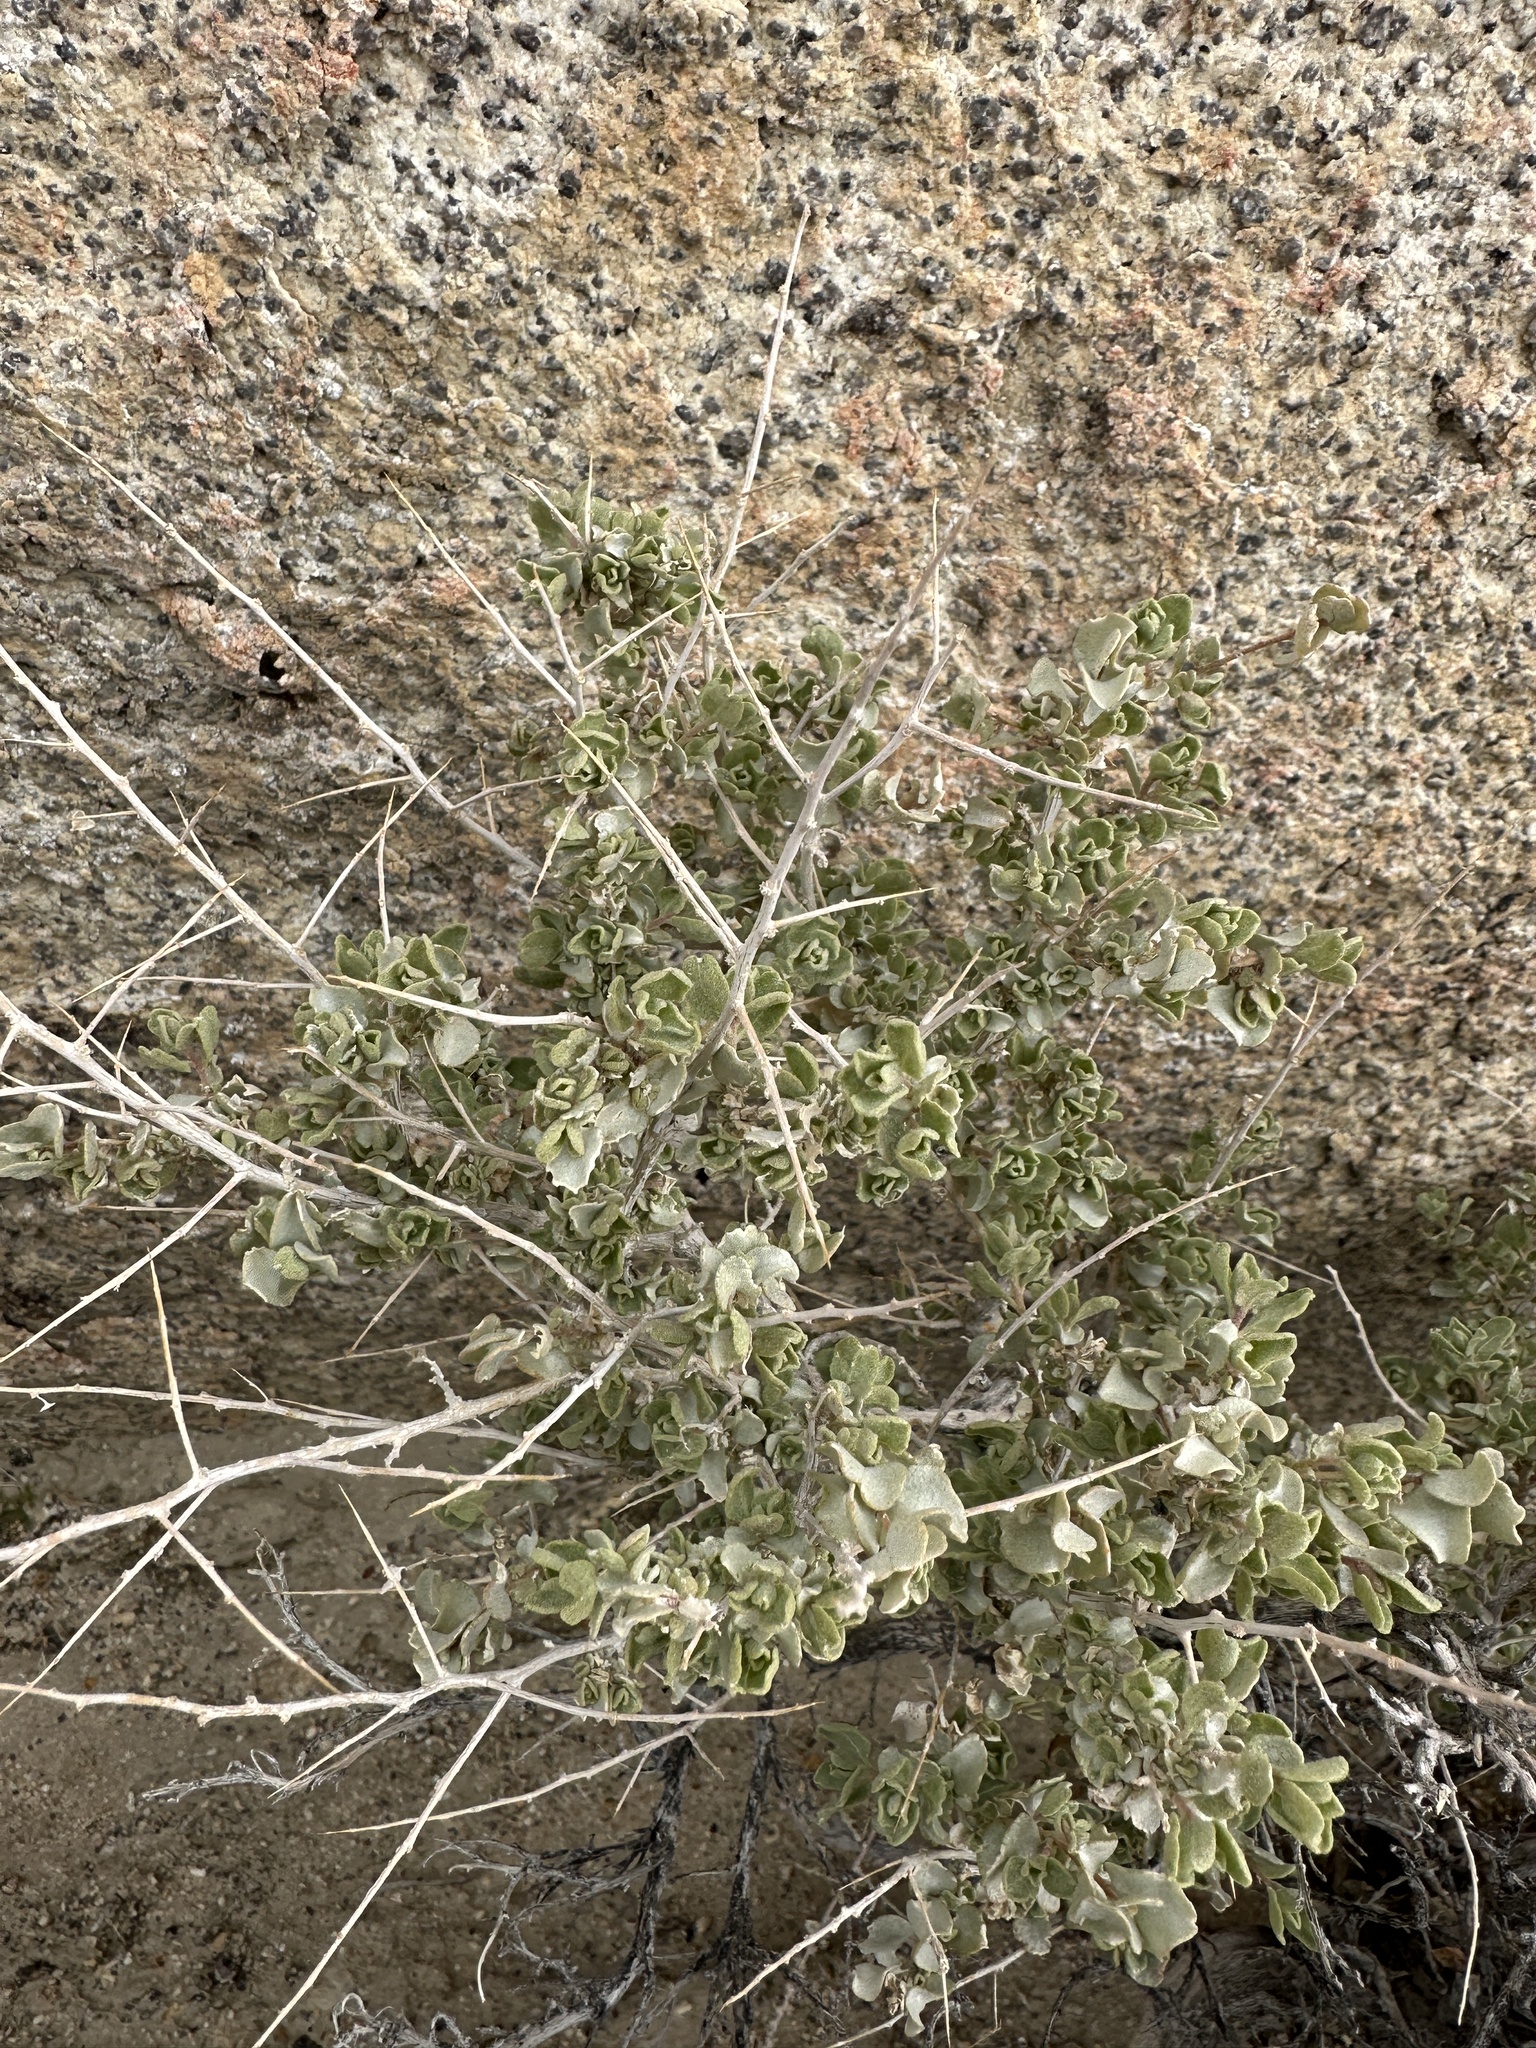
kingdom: Plantae
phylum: Tracheophyta
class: Magnoliopsida
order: Caryophyllales
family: Amaranthaceae
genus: Atriplex
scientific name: Atriplex confertifolia
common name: Shadscale
